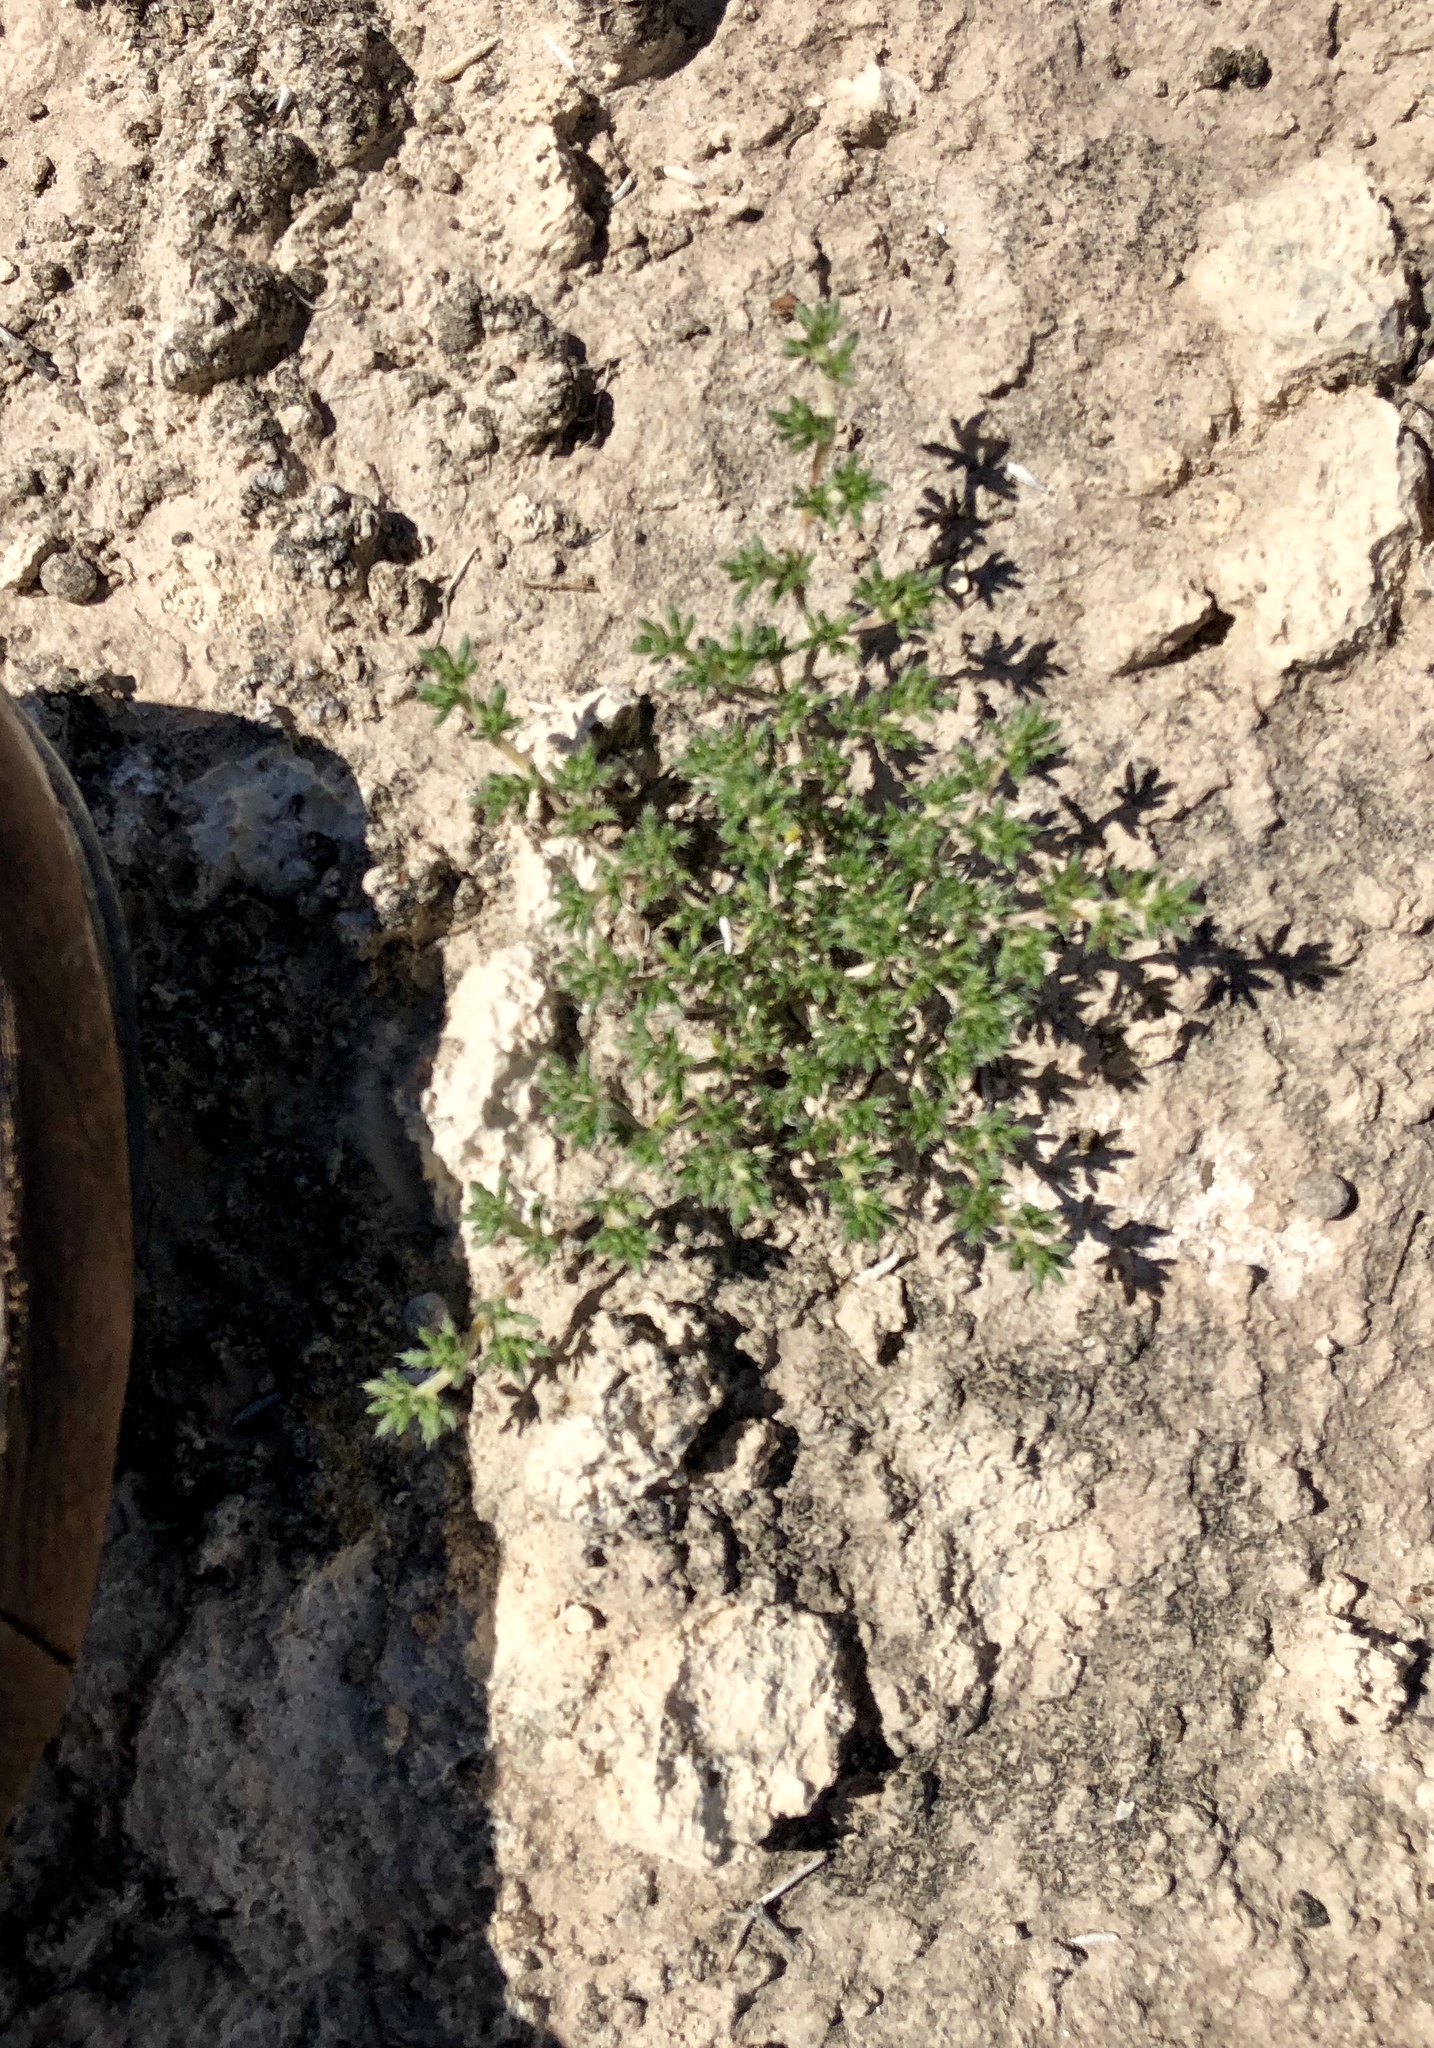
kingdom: Plantae
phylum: Tracheophyta
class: Magnoliopsida
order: Boraginales
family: Ehretiaceae
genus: Tiquilia
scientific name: Tiquilia hispidissima
